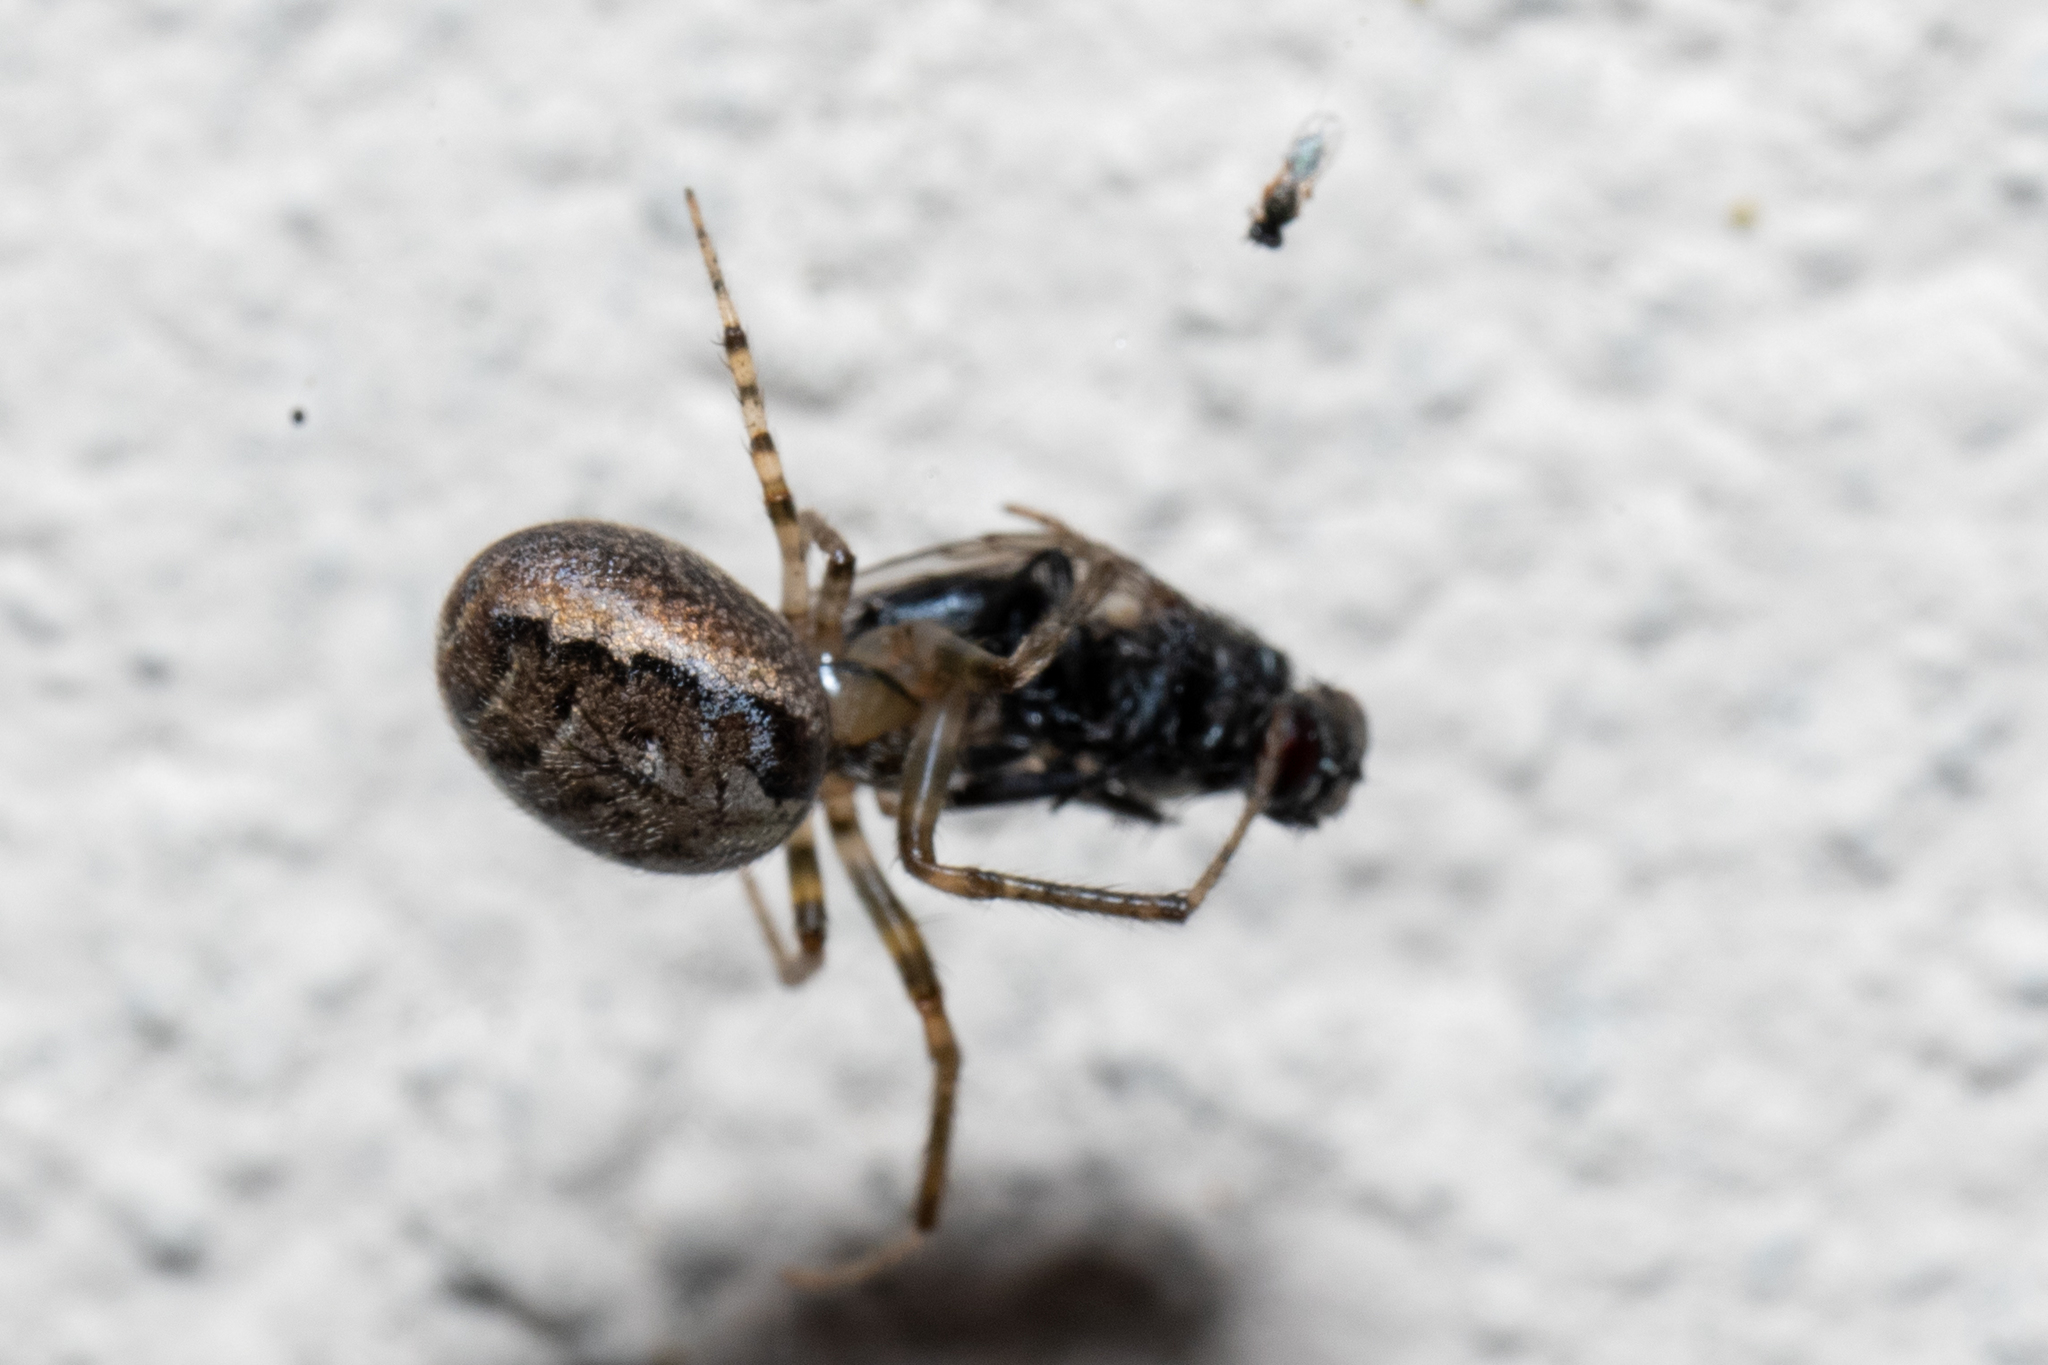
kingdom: Animalia
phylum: Arthropoda
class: Arachnida
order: Araneae
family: Araneidae
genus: Zygiella
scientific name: Zygiella x-notata
